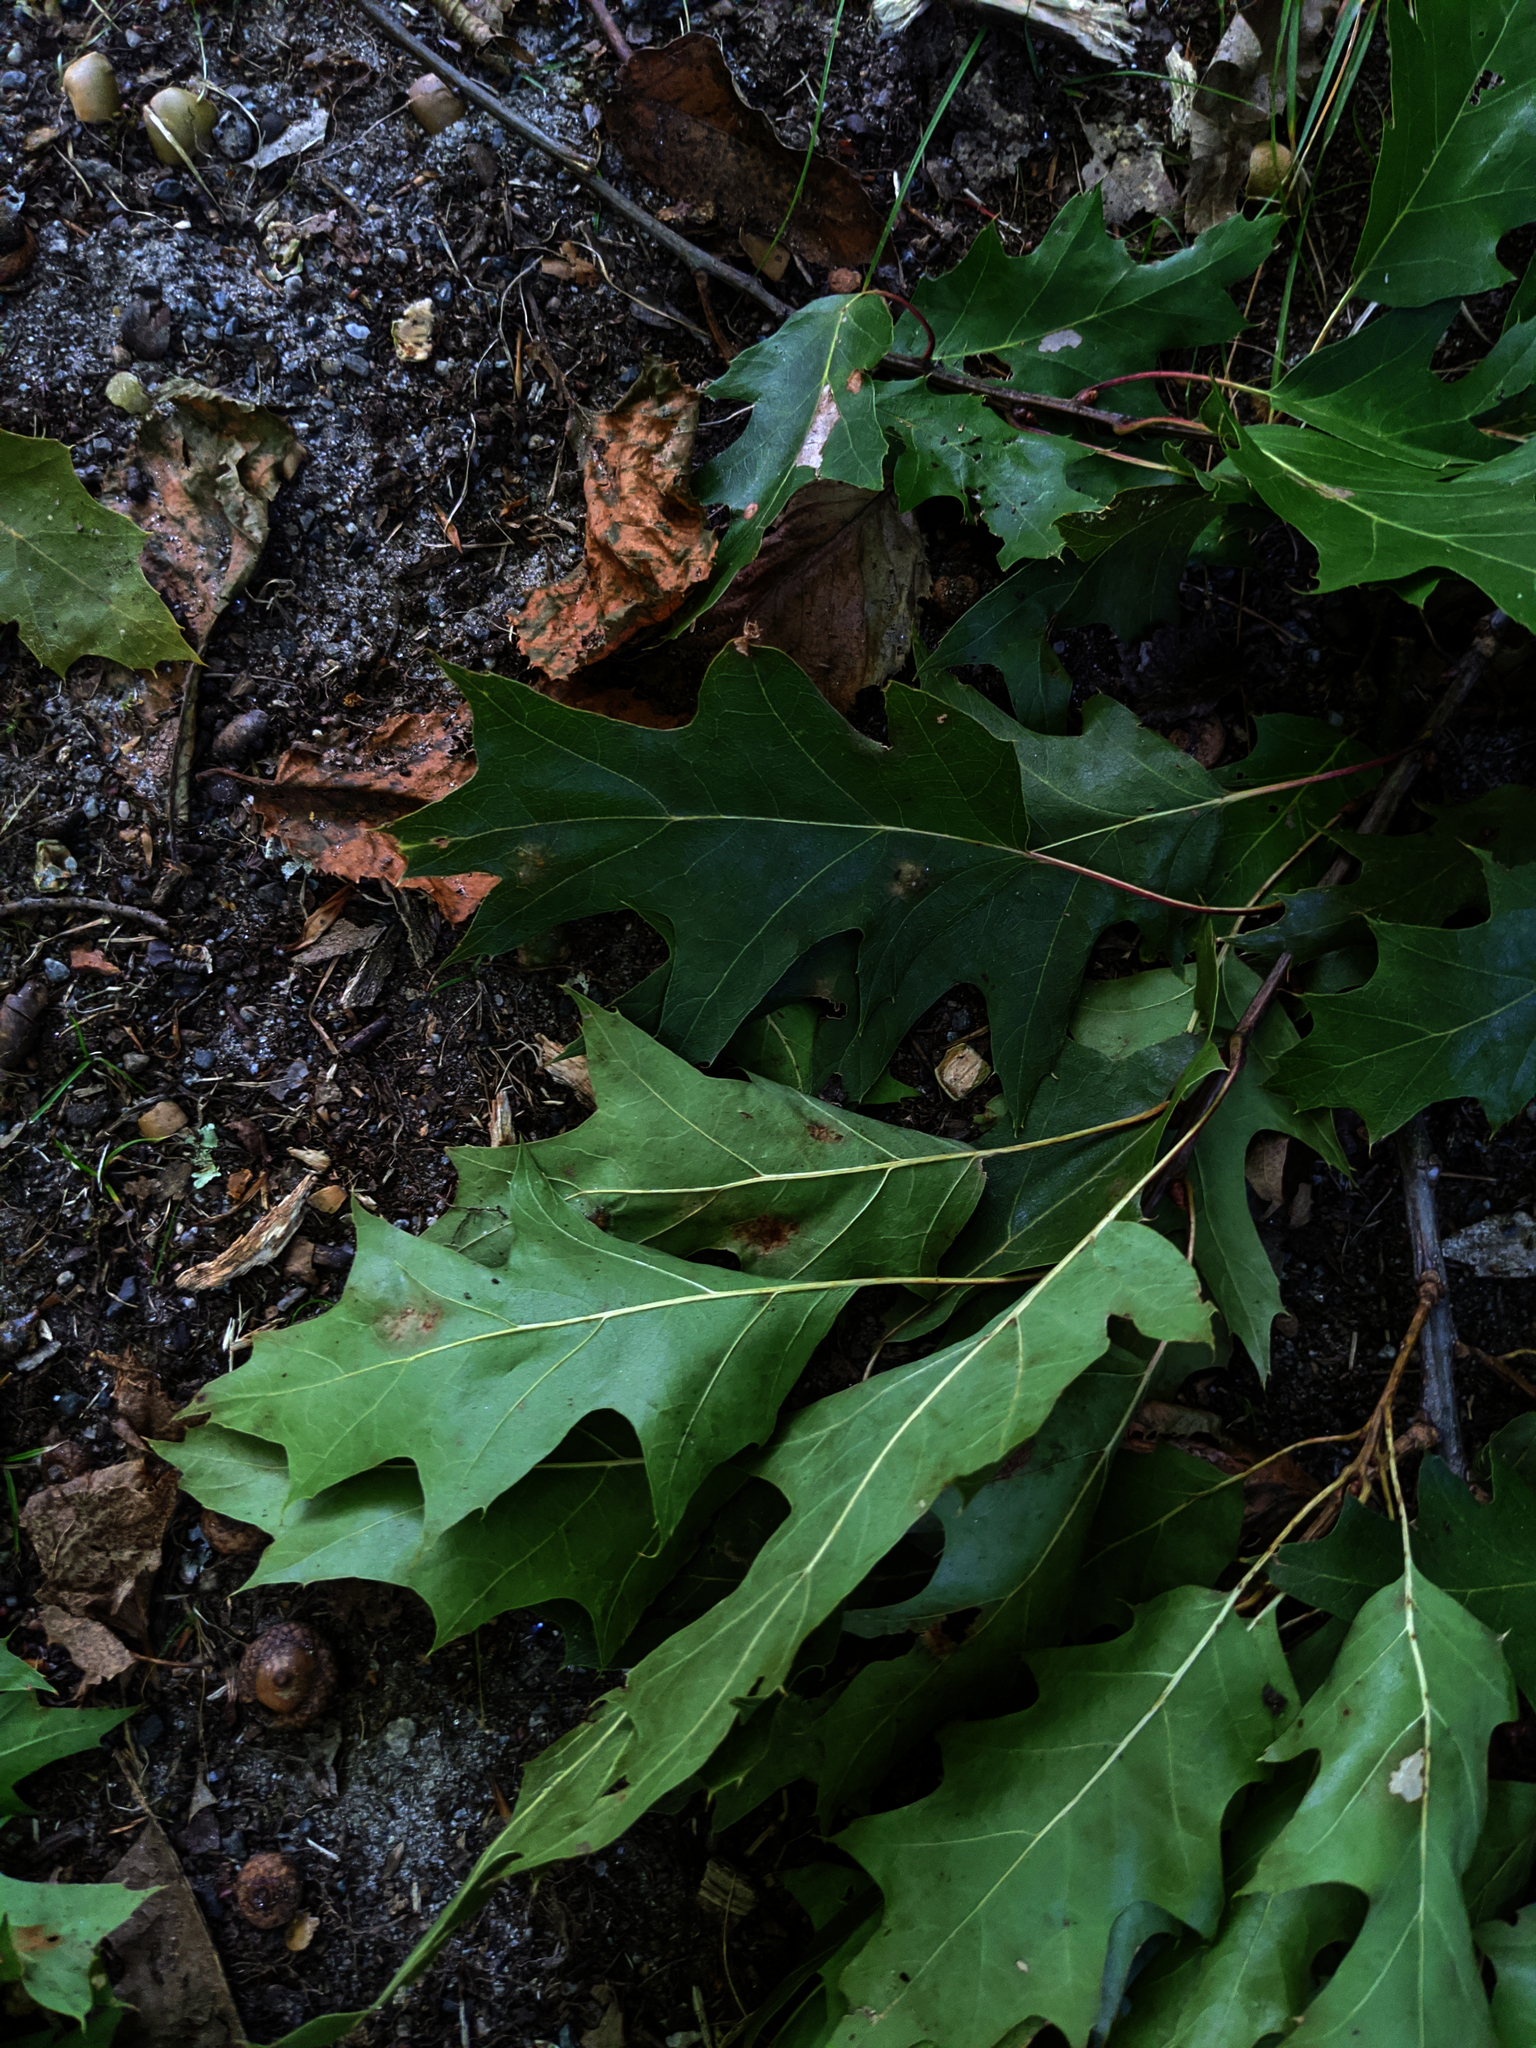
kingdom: Plantae
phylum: Tracheophyta
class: Magnoliopsida
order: Fagales
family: Fagaceae
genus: Quercus
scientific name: Quercus rubra
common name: Red oak
